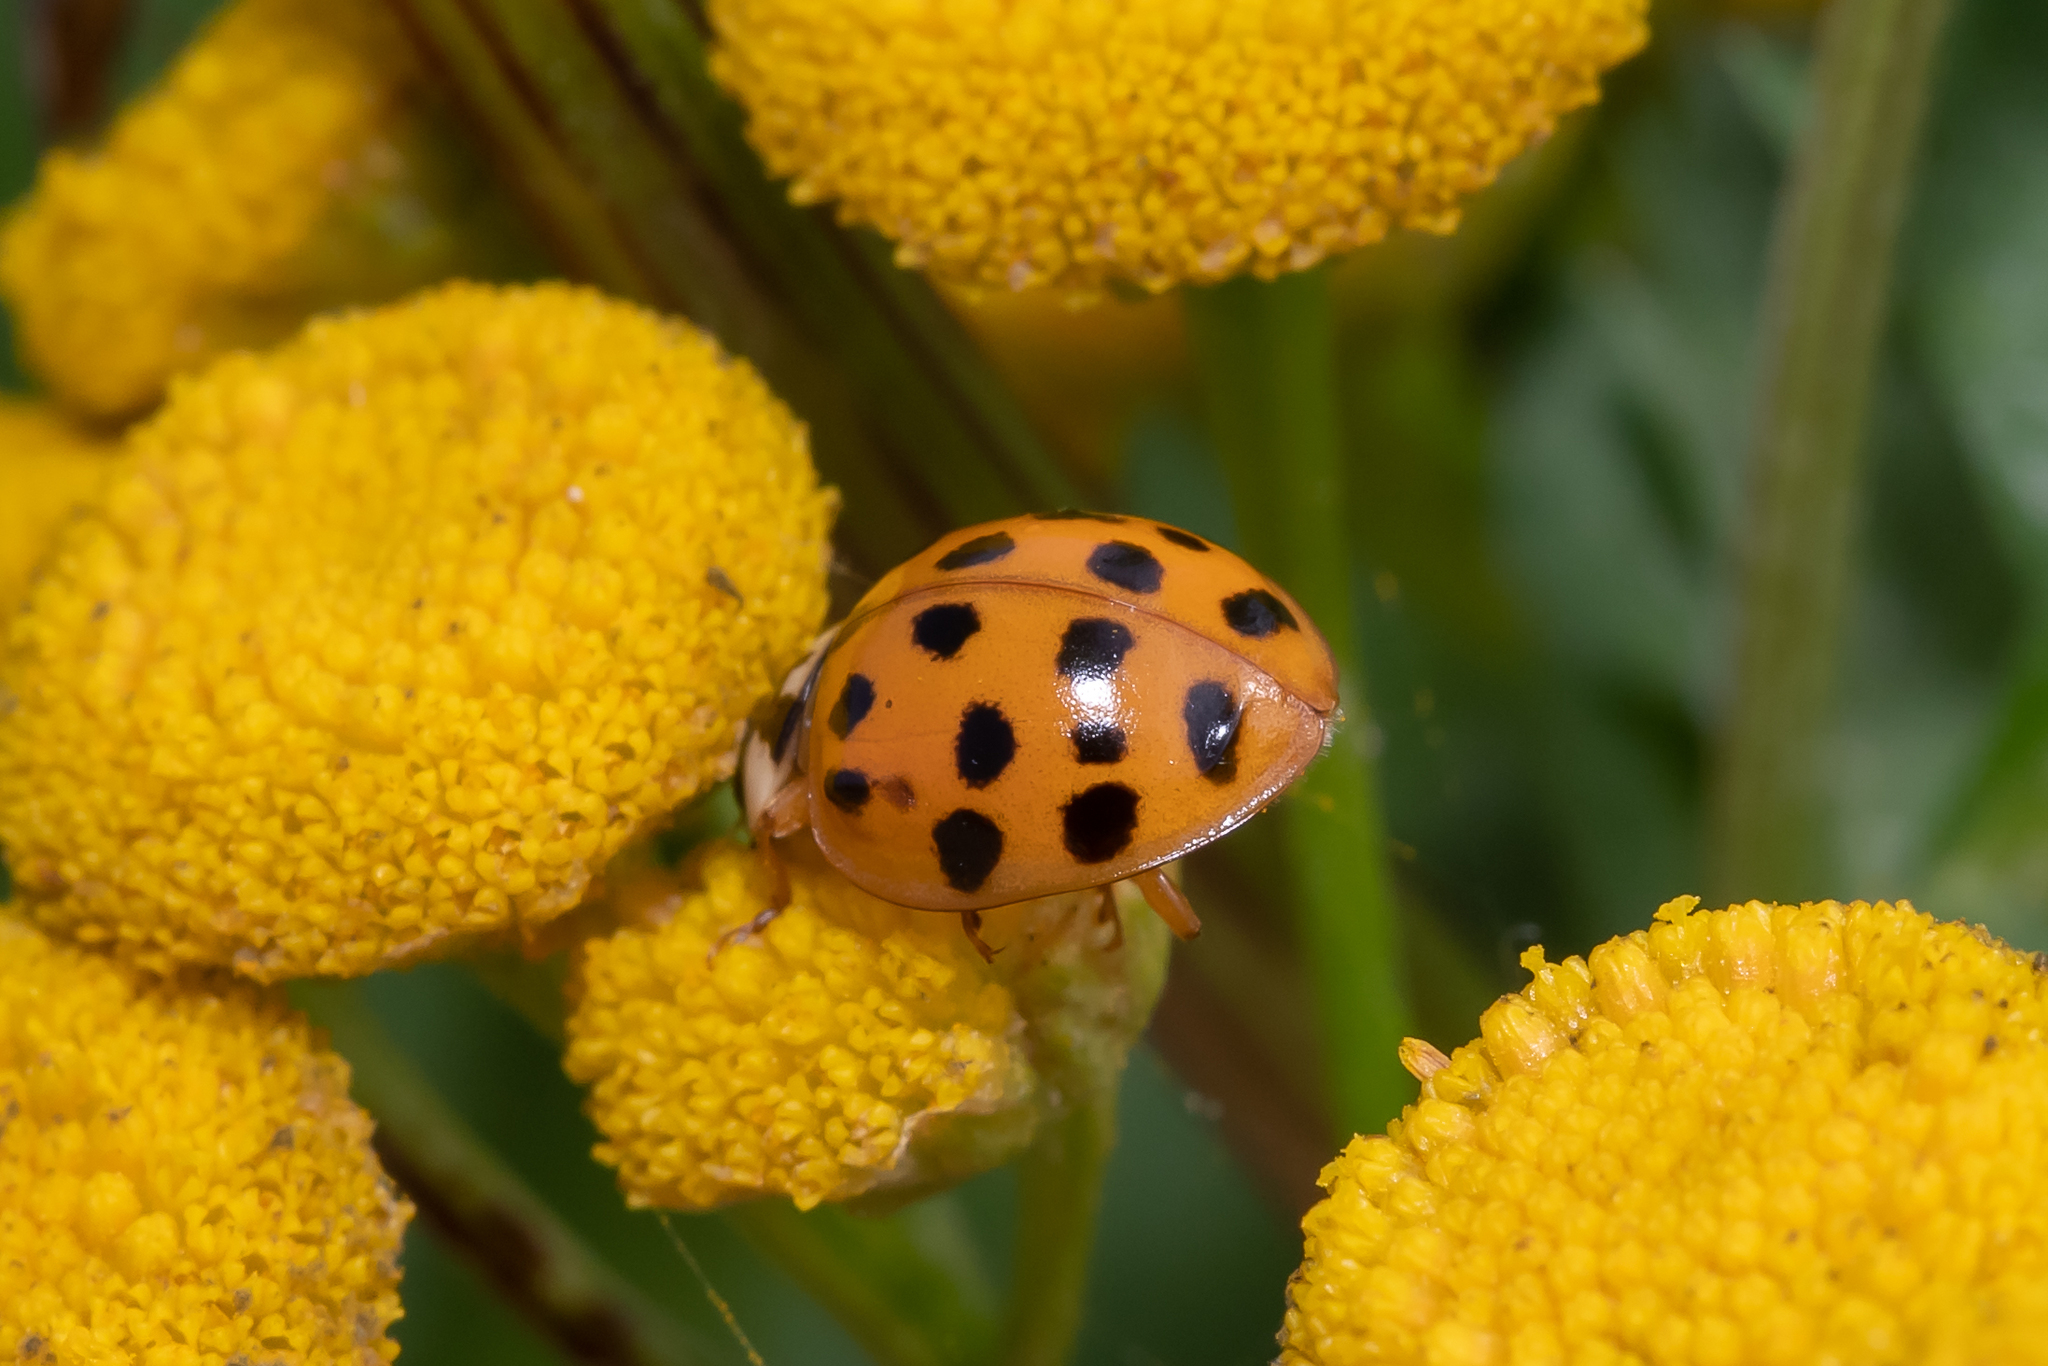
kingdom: Animalia
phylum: Arthropoda
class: Insecta
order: Coleoptera
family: Coccinellidae
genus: Harmonia
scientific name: Harmonia axyridis
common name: Harlequin ladybird
